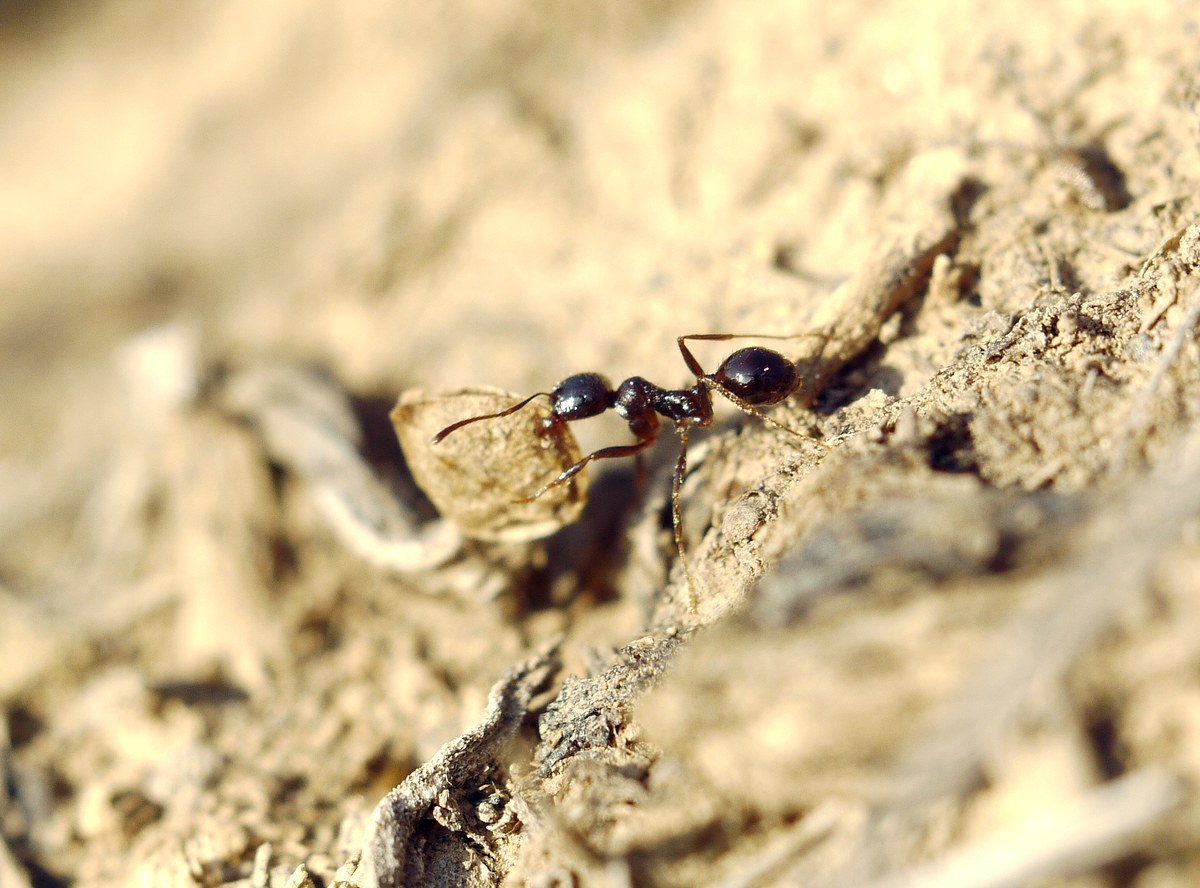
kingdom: Animalia
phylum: Arthropoda
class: Insecta
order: Hymenoptera
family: Formicidae
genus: Messor
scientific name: Messor structor
